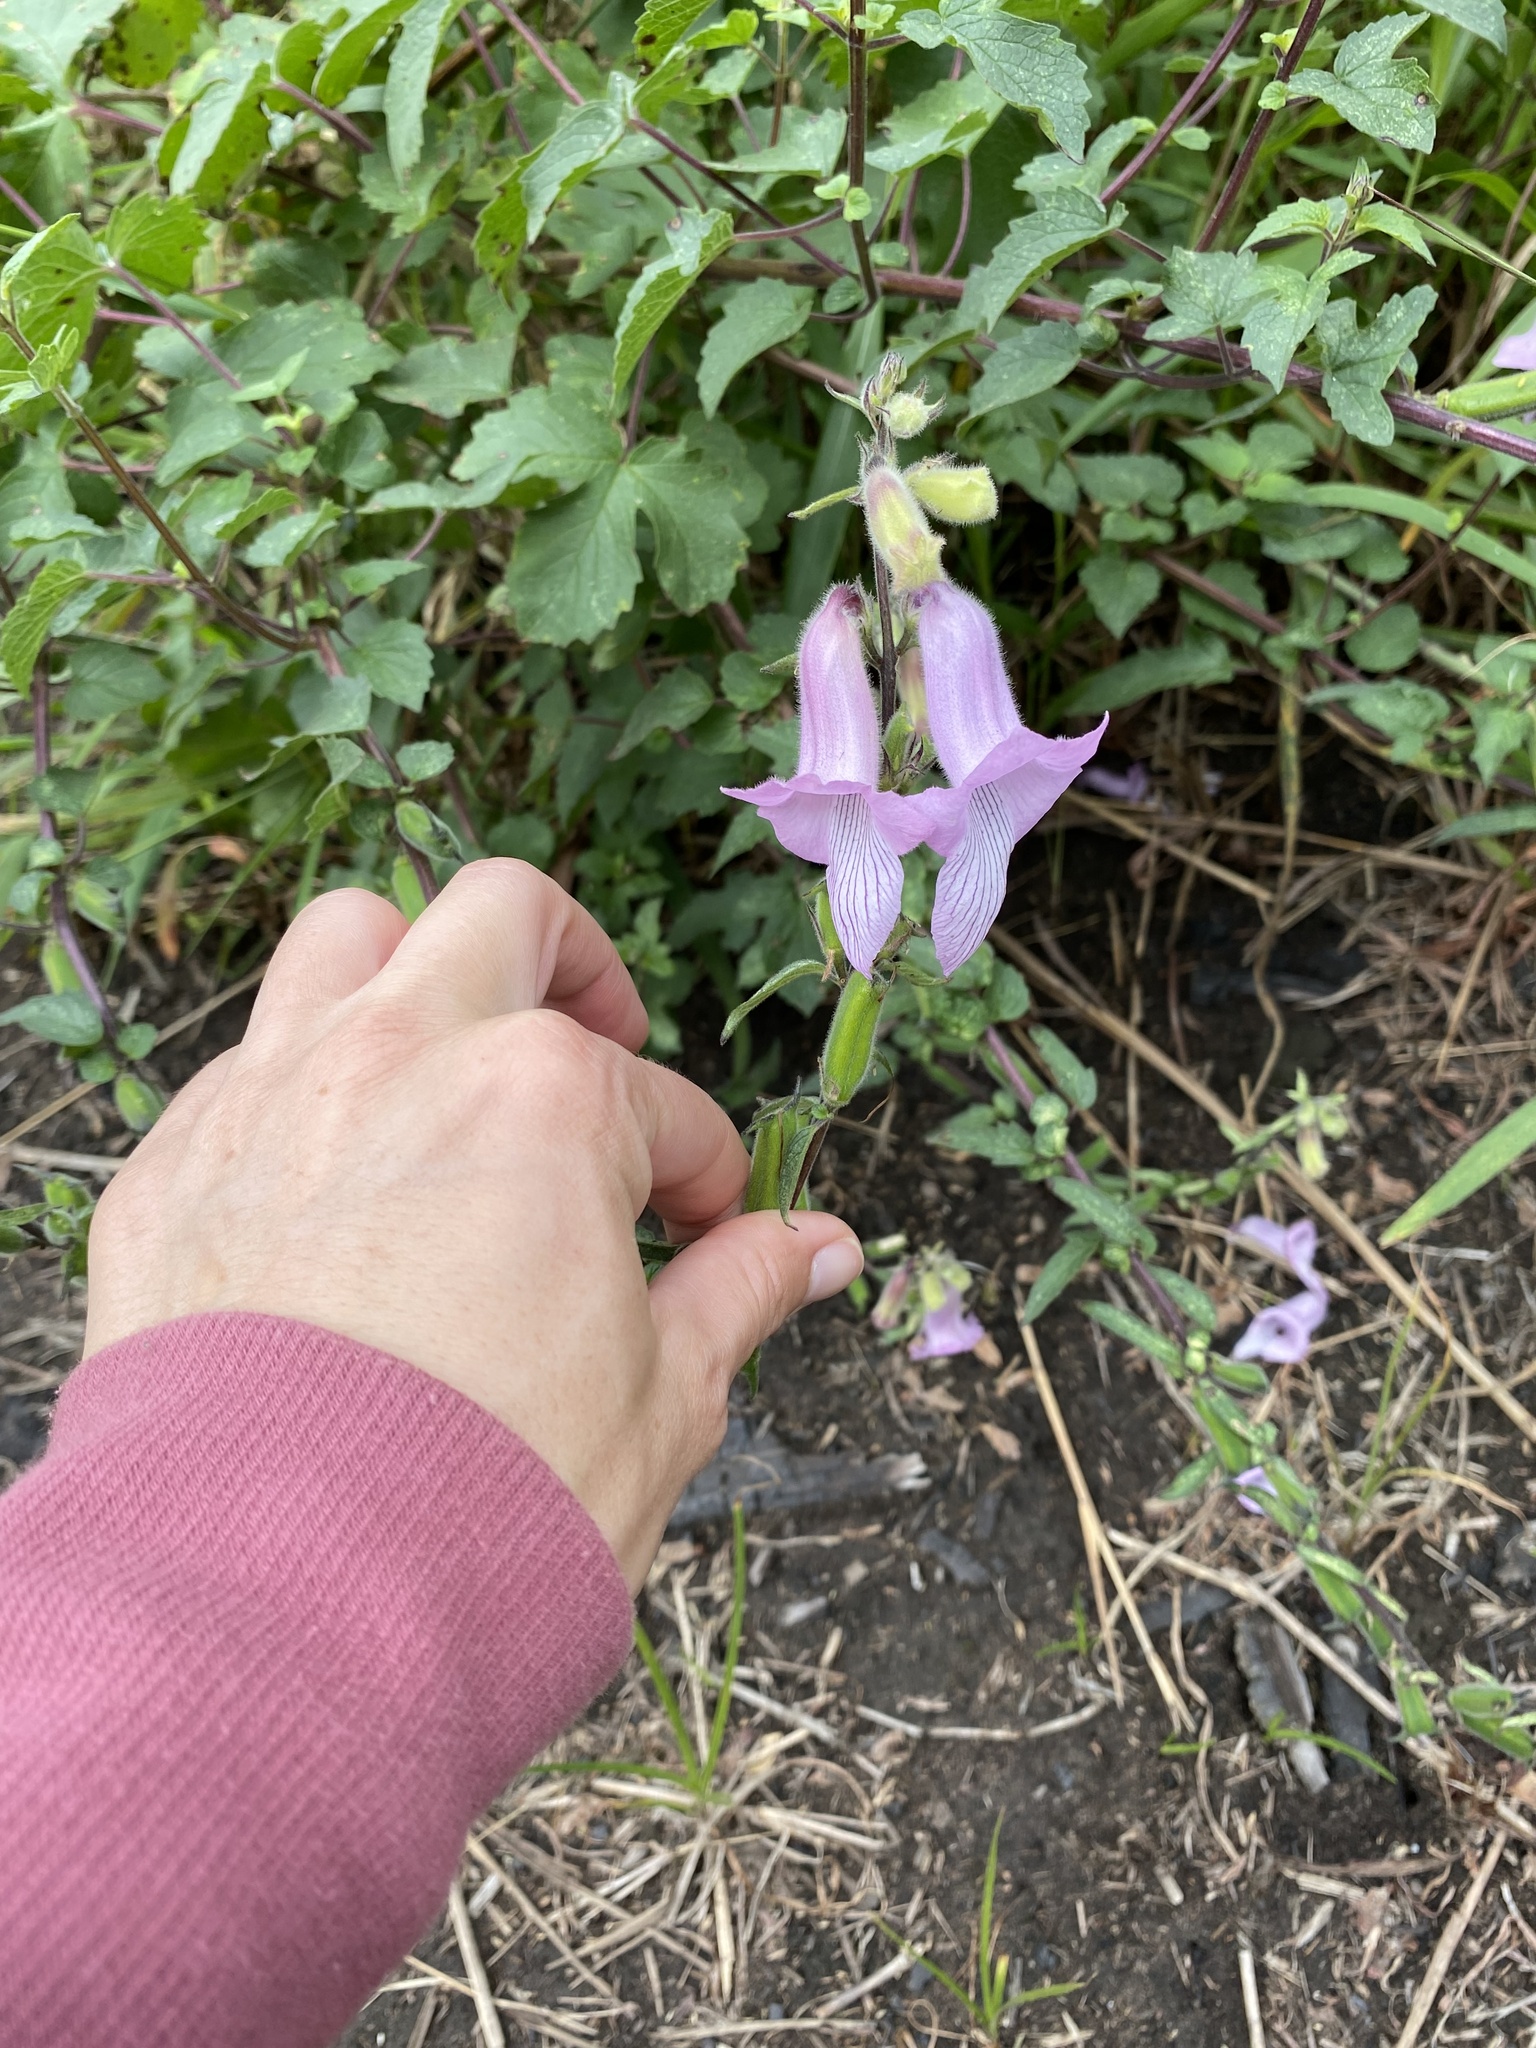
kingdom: Plantae
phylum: Tracheophyta
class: Magnoliopsida
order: Lamiales
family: Pedaliaceae
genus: Sesamum
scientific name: Sesamum trilobum
